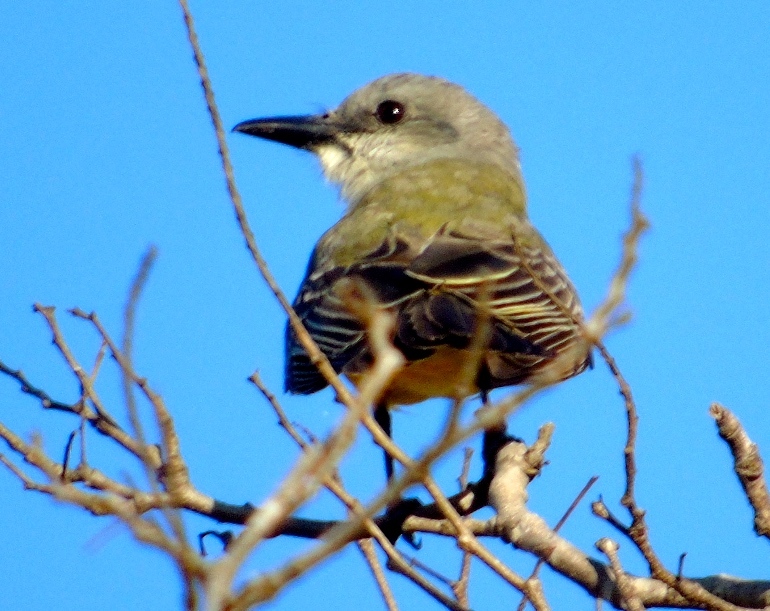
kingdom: Animalia
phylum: Chordata
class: Aves
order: Passeriformes
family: Tyrannidae
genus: Tyrannus
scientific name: Tyrannus melancholicus
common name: Tropical kingbird
